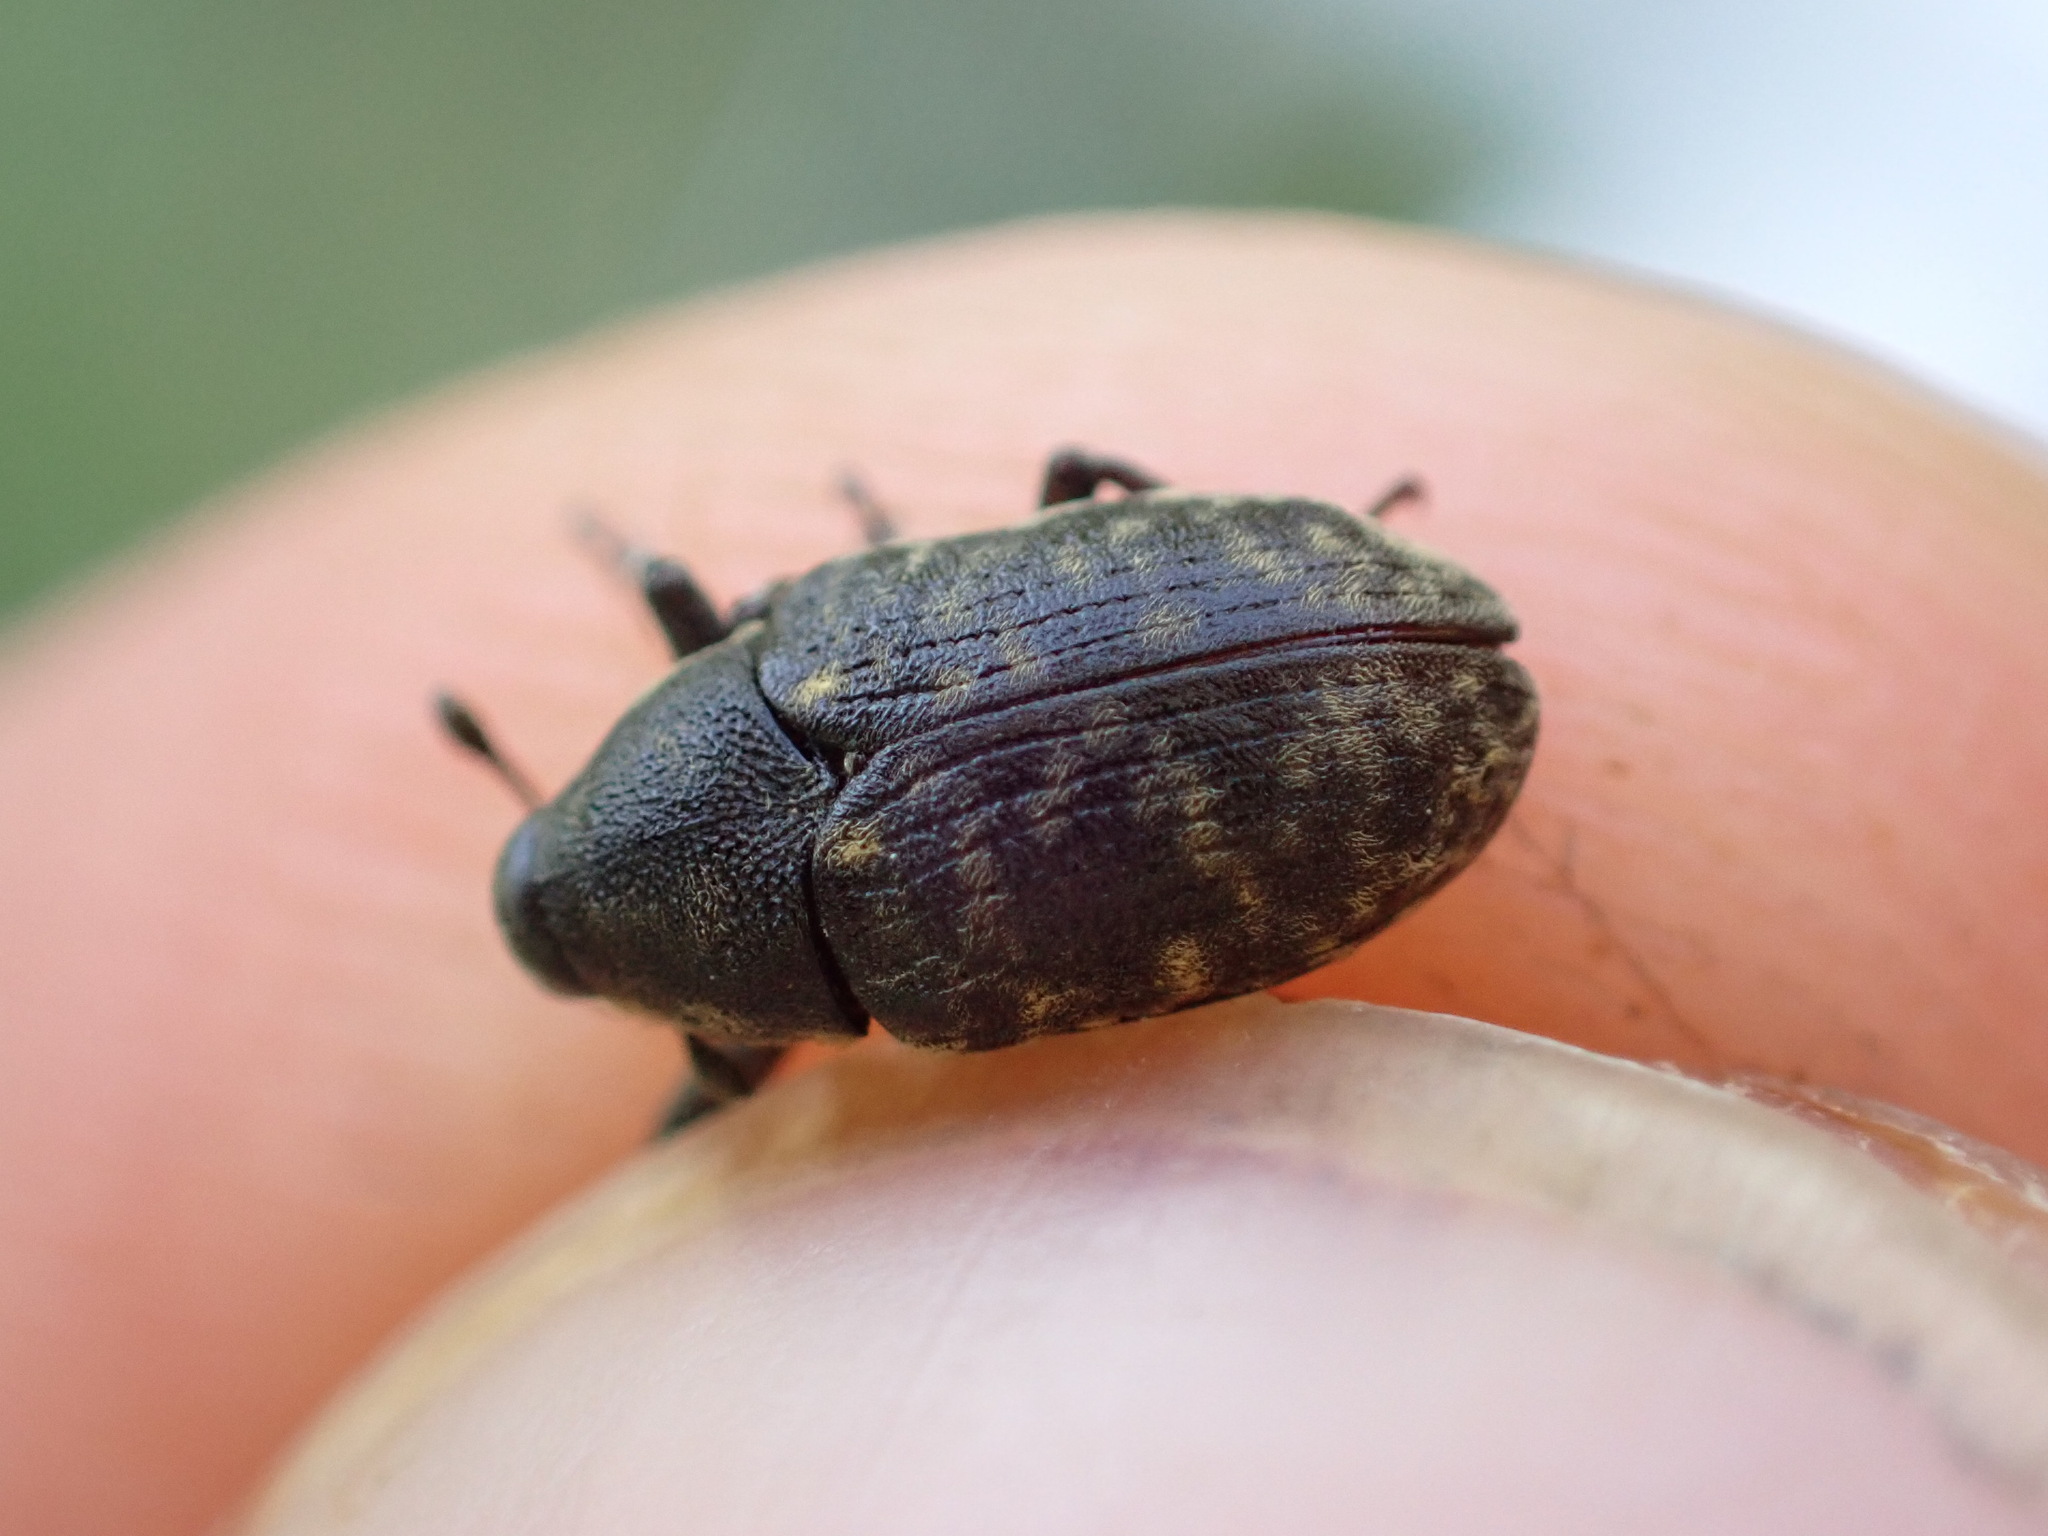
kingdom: Animalia
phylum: Arthropoda
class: Insecta
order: Coleoptera
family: Curculionidae
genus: Larinus
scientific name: Larinus turbinatus
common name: Weevil
